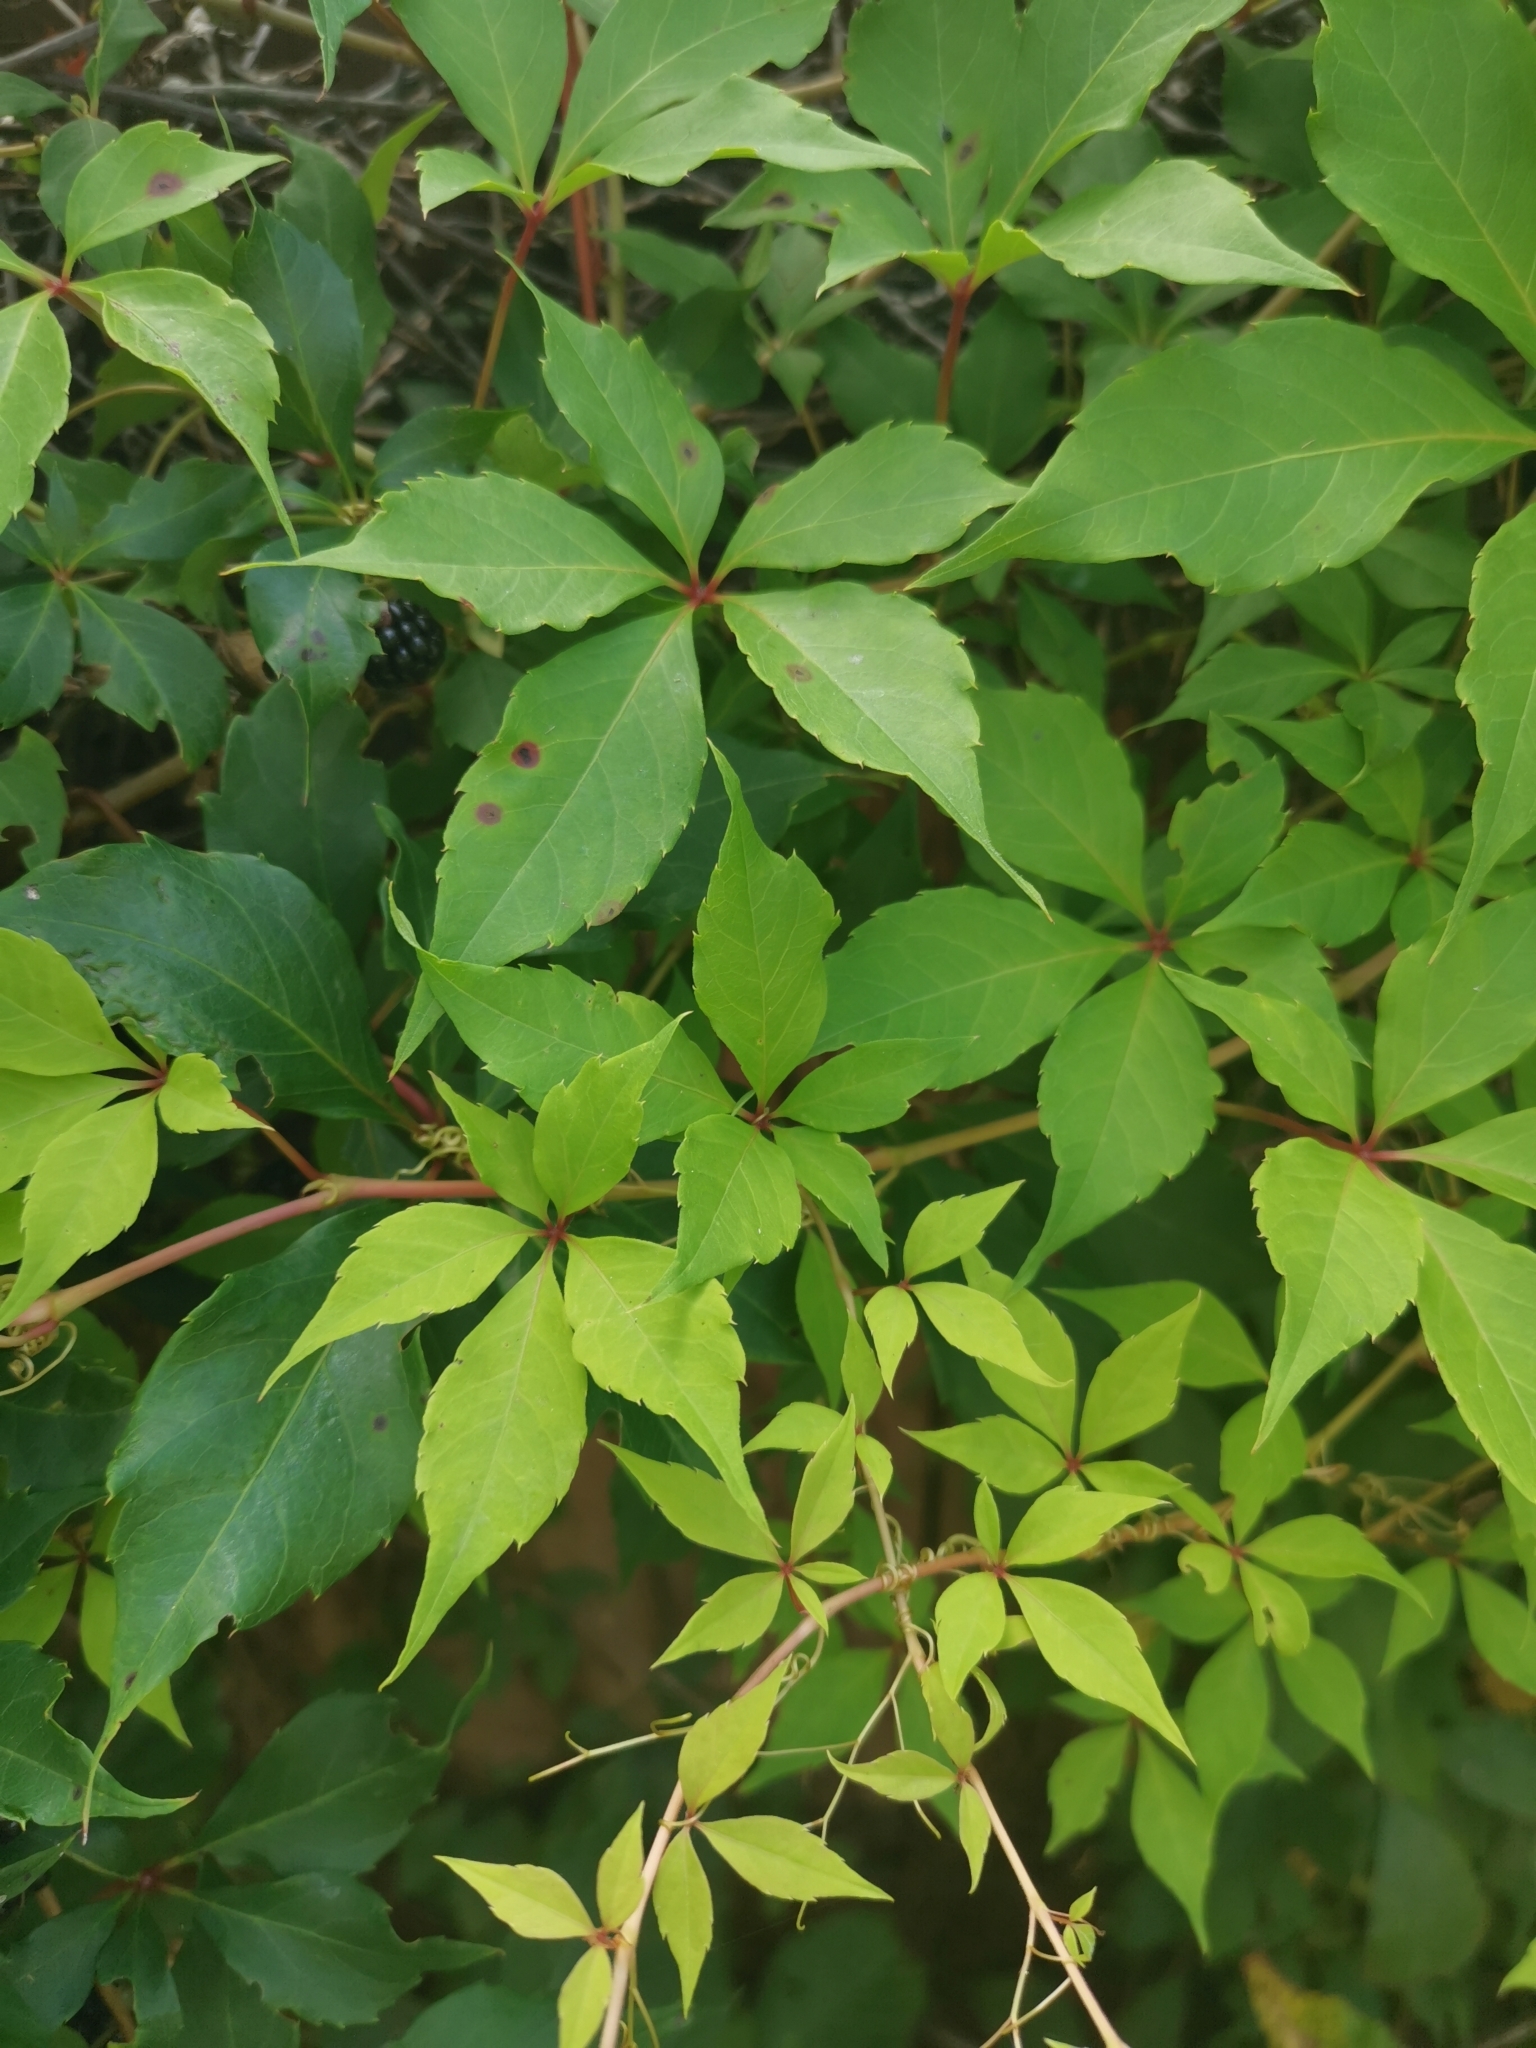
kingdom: Plantae
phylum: Tracheophyta
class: Magnoliopsida
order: Vitales
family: Vitaceae
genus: Parthenocissus
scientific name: Parthenocissus quinquefolia
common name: Virginia-creeper
